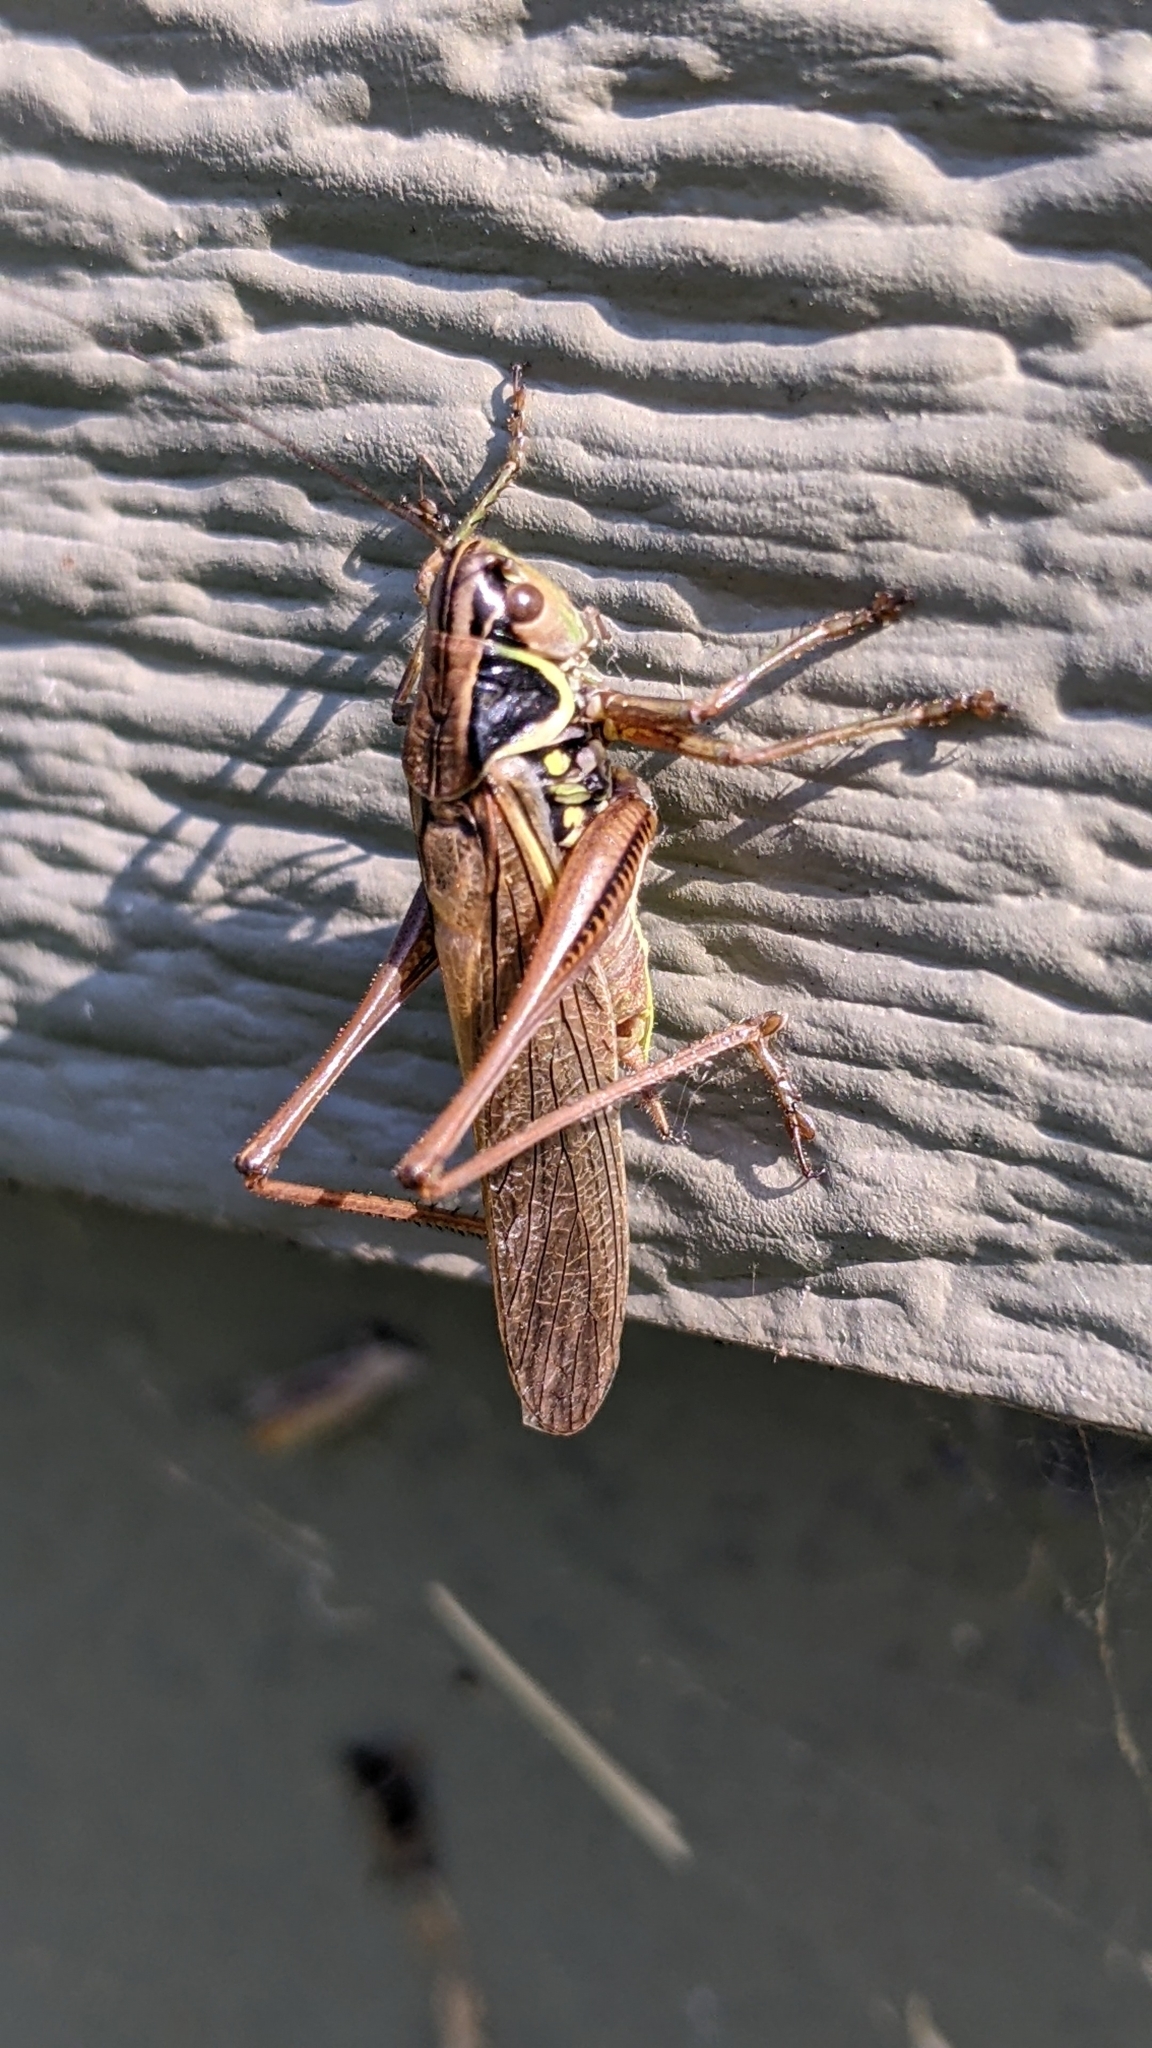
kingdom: Animalia
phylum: Arthropoda
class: Insecta
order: Orthoptera
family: Tettigoniidae
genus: Roeseliana
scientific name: Roeseliana roeselii
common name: Roesel's bush cricket
